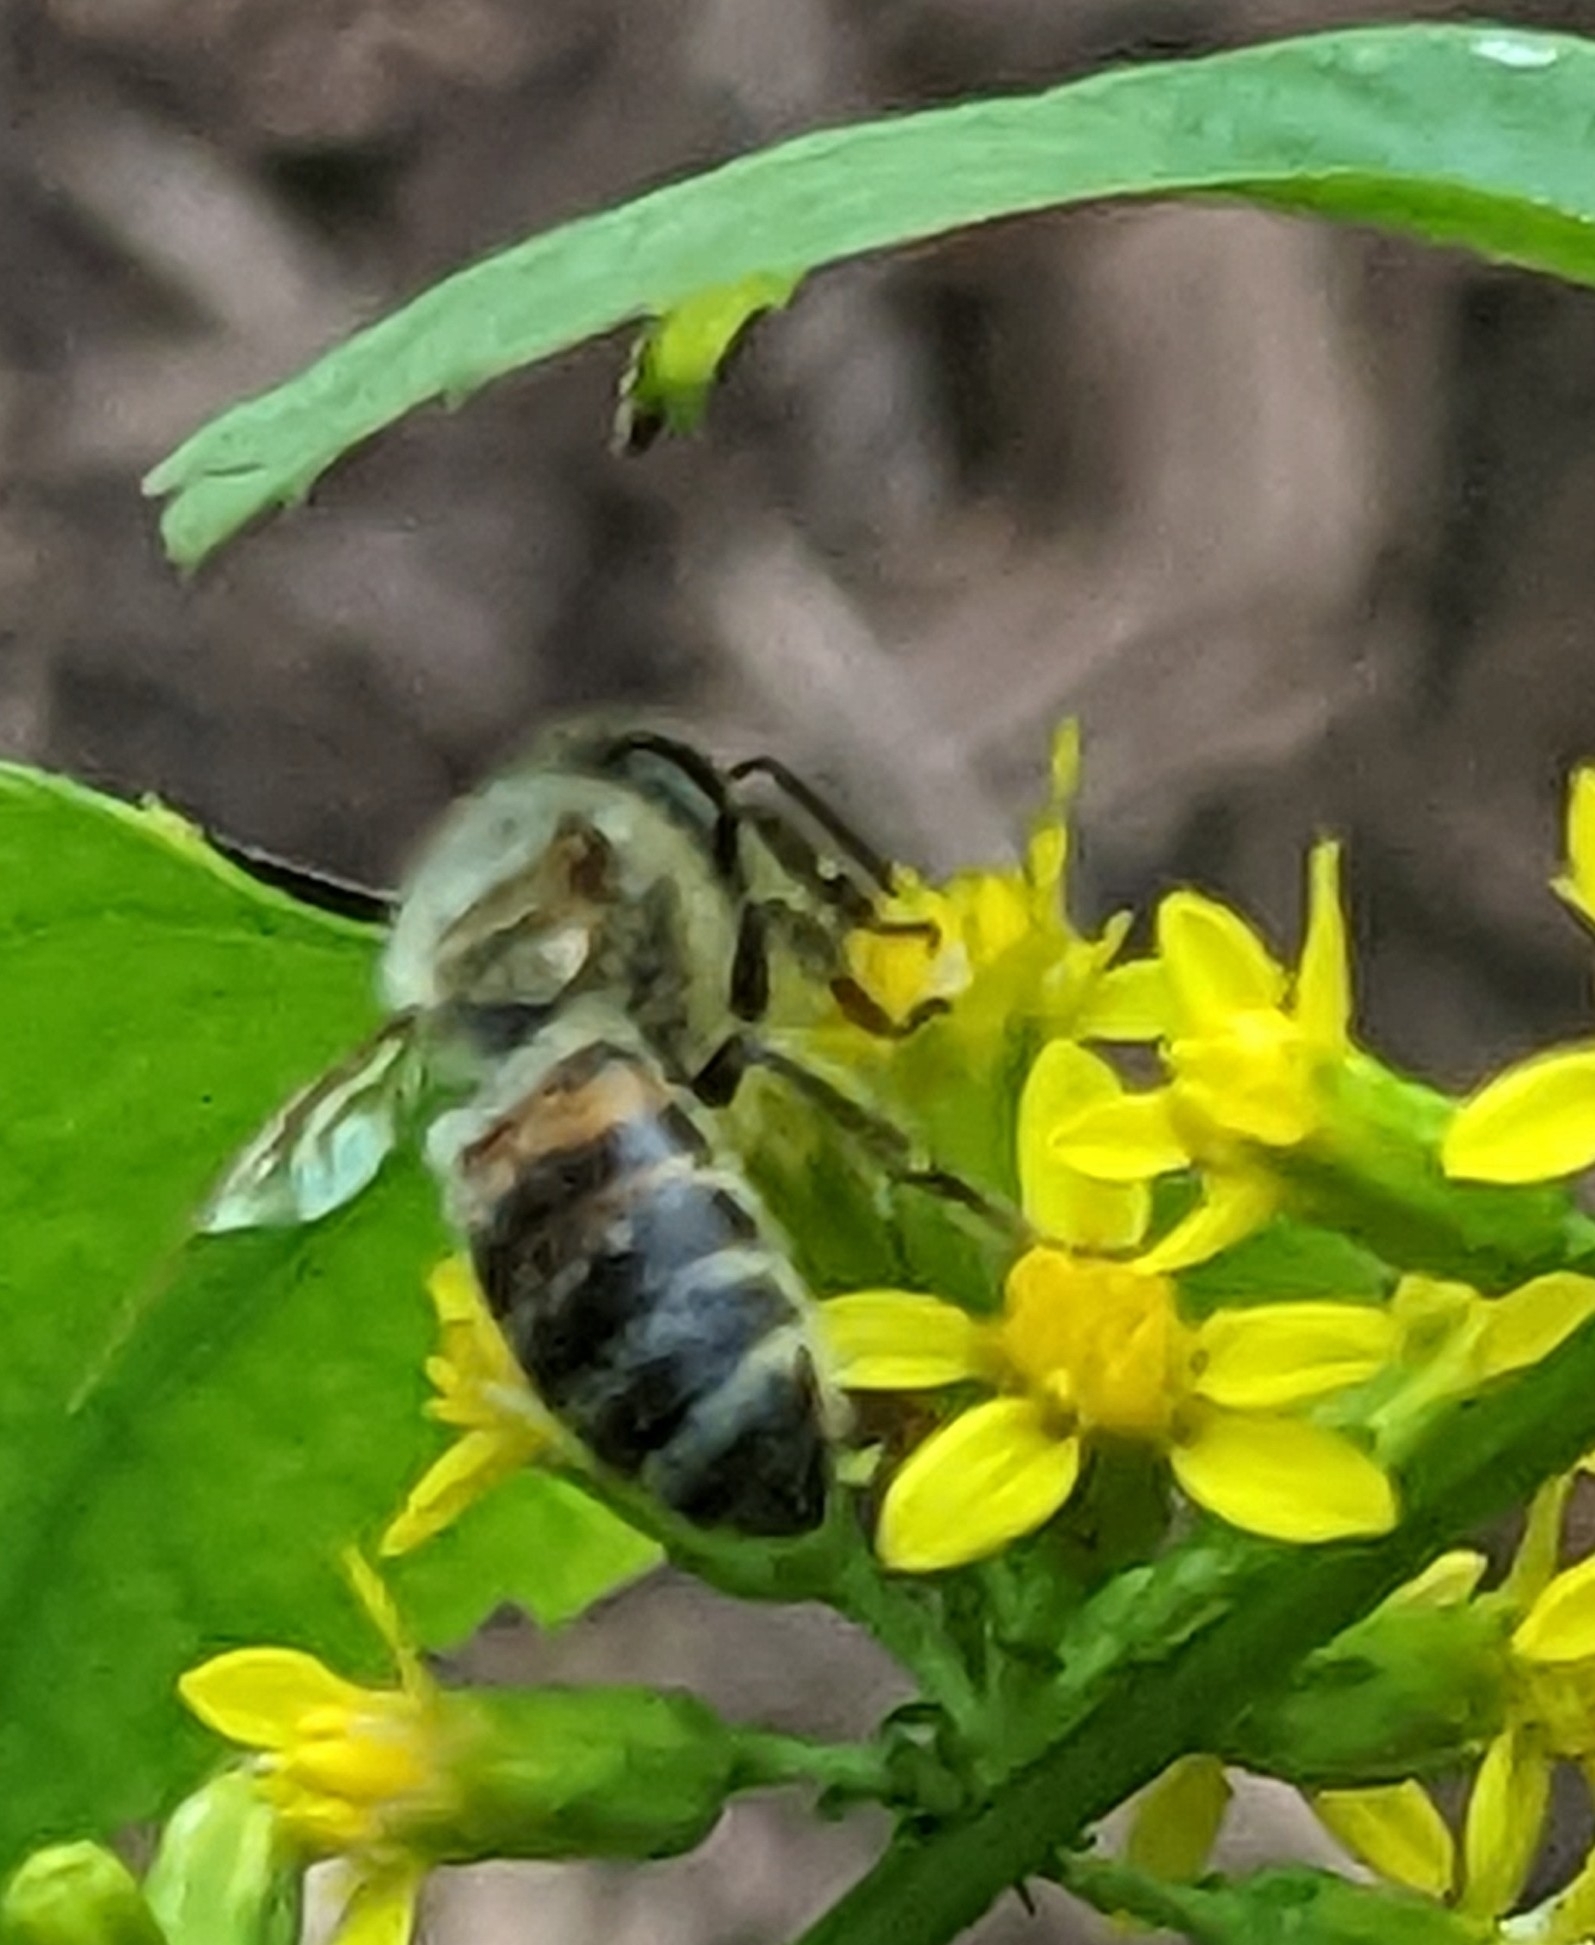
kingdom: Animalia
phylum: Arthropoda
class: Insecta
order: Hymenoptera
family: Apidae
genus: Apis
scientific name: Apis mellifera
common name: Honey bee
